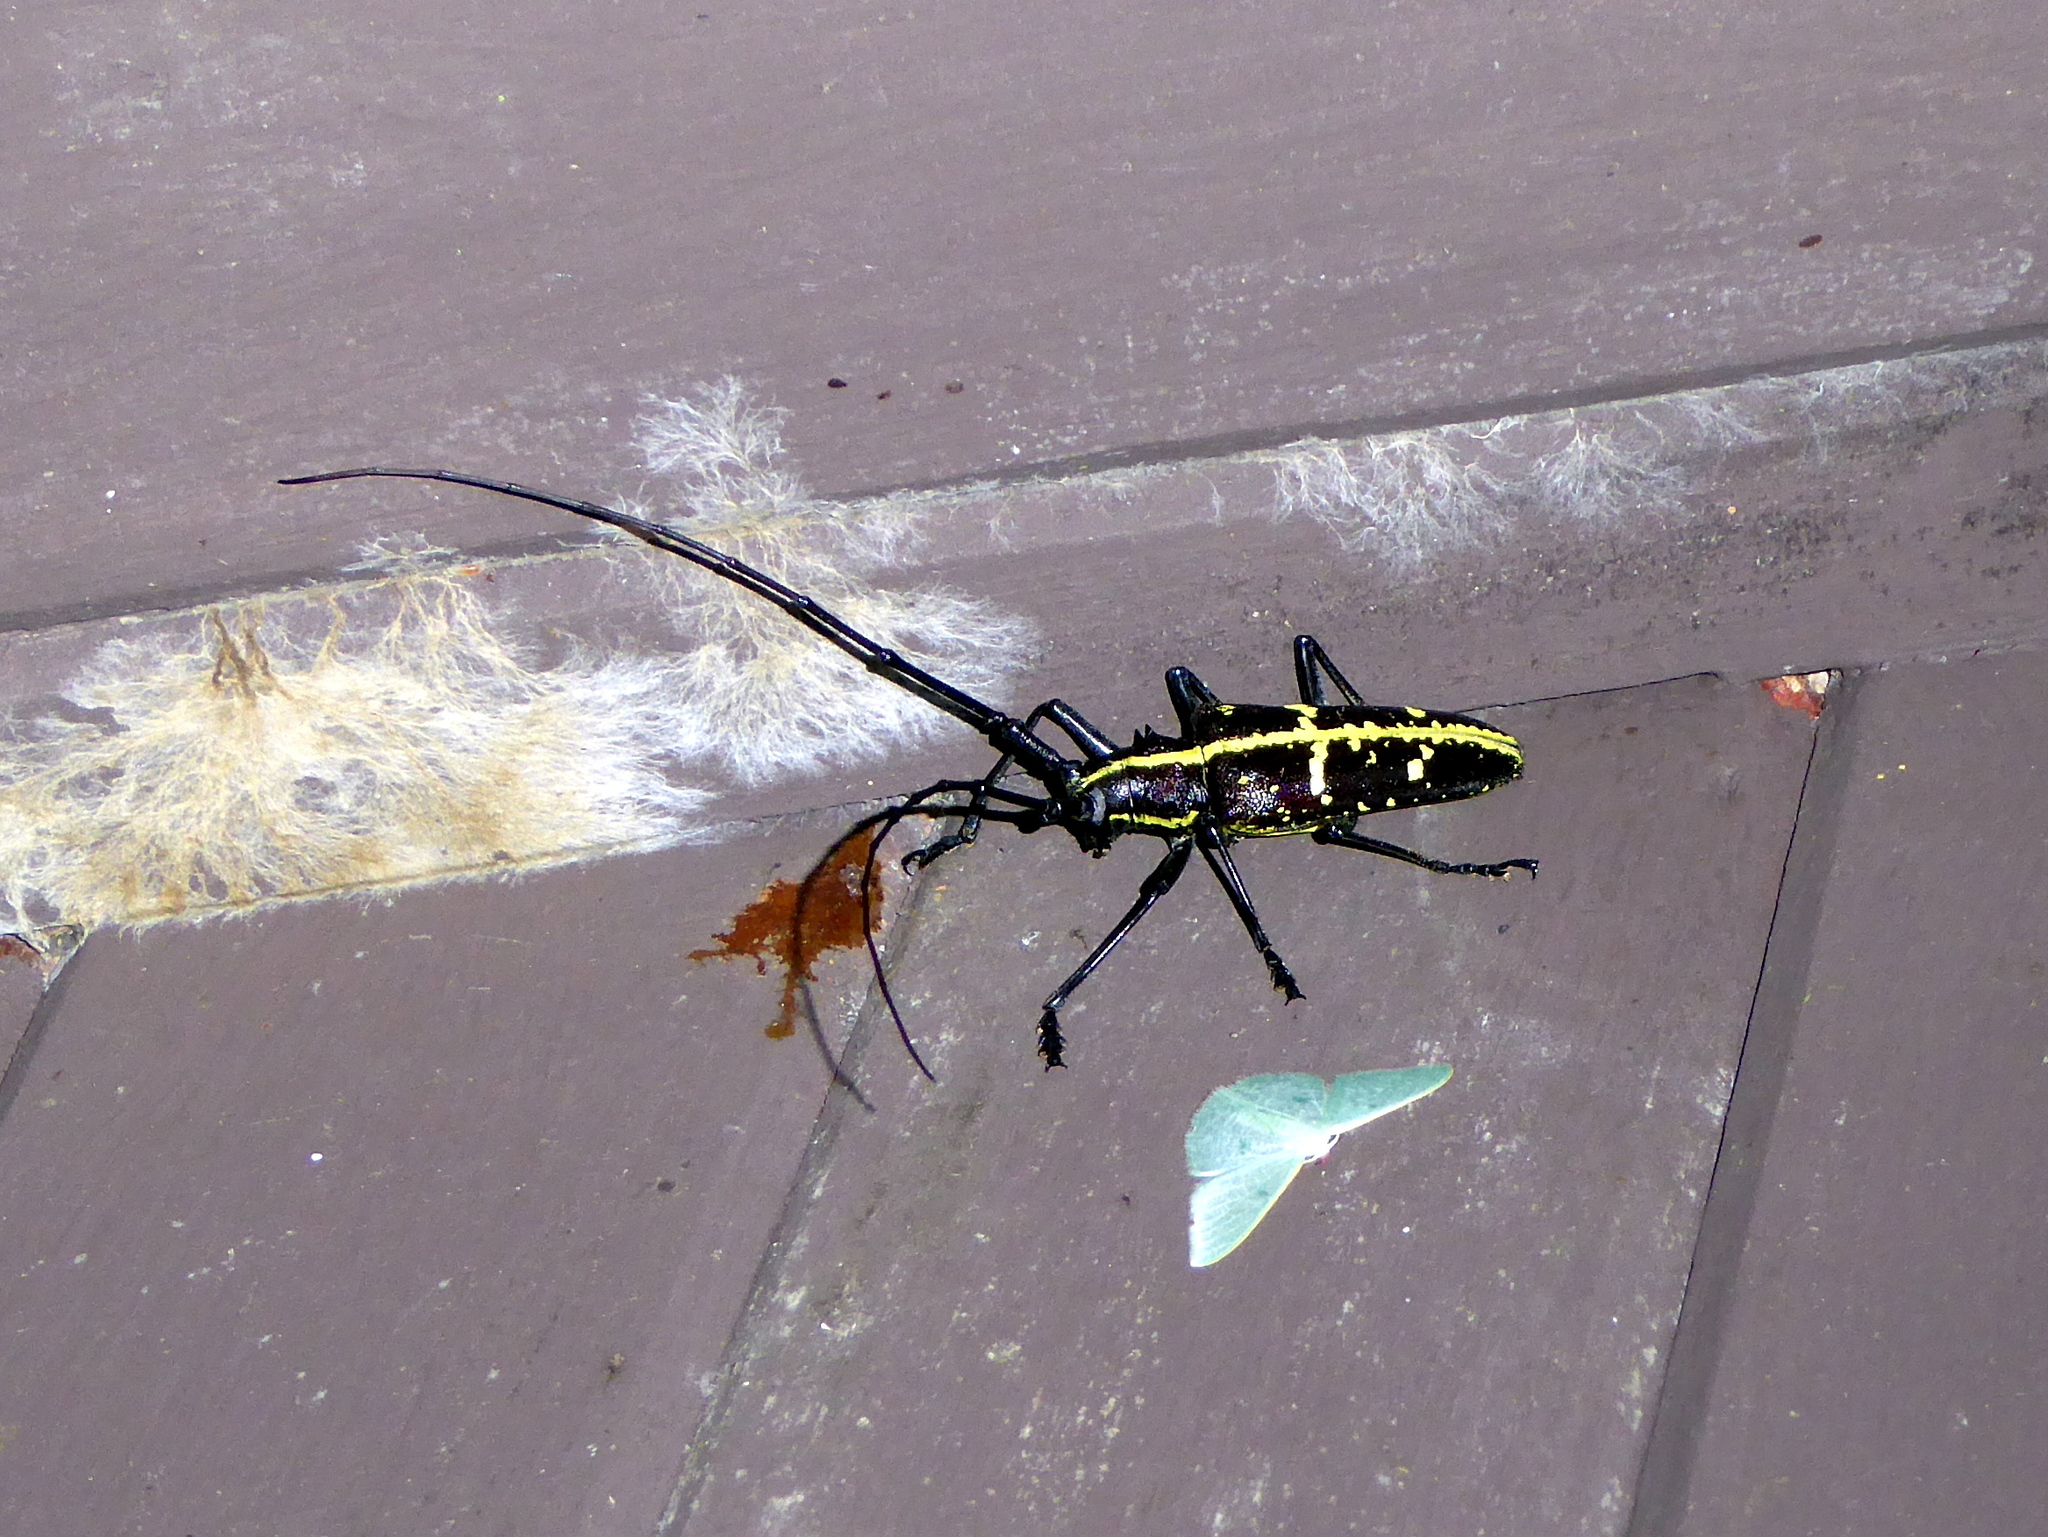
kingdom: Animalia
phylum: Arthropoda
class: Insecta
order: Coleoptera
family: Cerambycidae
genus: Taeniotes
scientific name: Taeniotes praeclarus
